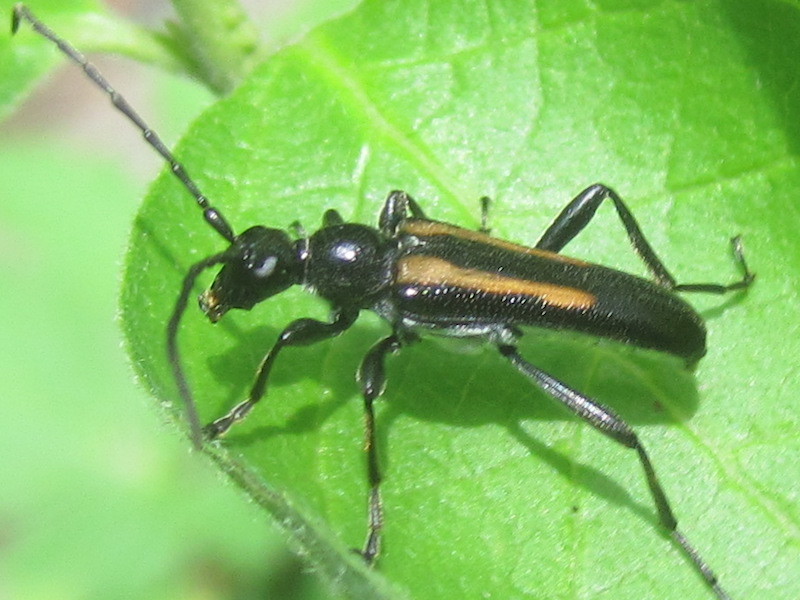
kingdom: Animalia
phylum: Arthropoda
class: Insecta
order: Coleoptera
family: Cerambycidae
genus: Strangalepta
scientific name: Strangalepta abbreviata
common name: Strangalepta flower longhorn beetle
